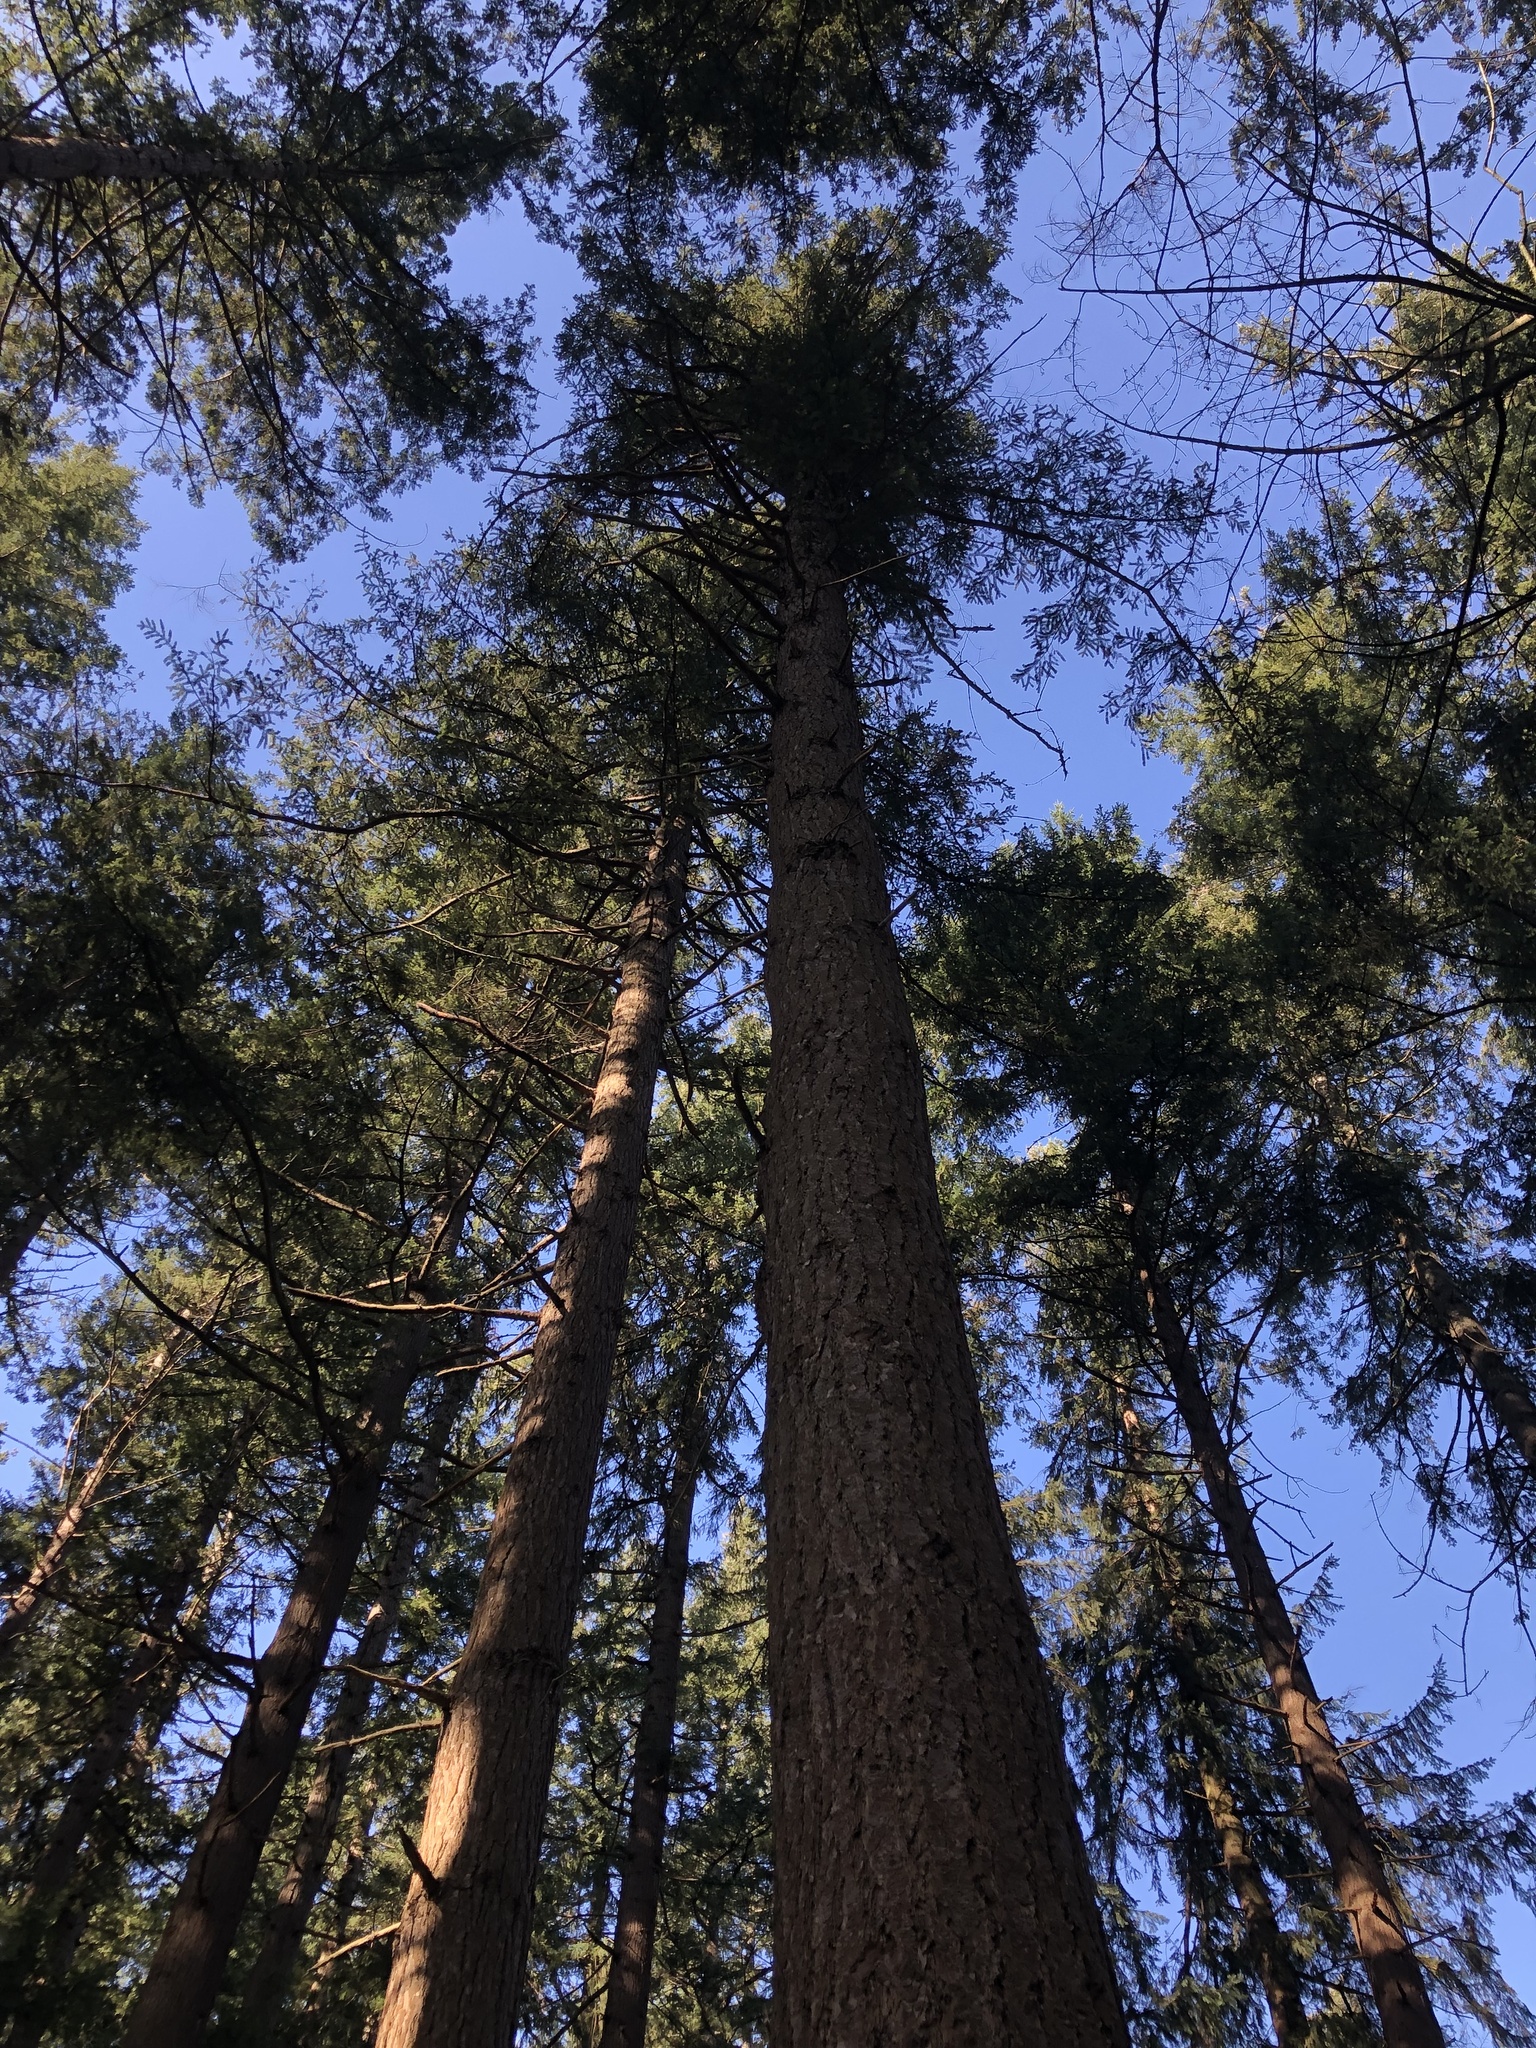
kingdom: Plantae
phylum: Tracheophyta
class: Pinopsida
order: Pinales
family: Pinaceae
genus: Pseudotsuga
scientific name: Pseudotsuga menziesii
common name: Douglas fir
